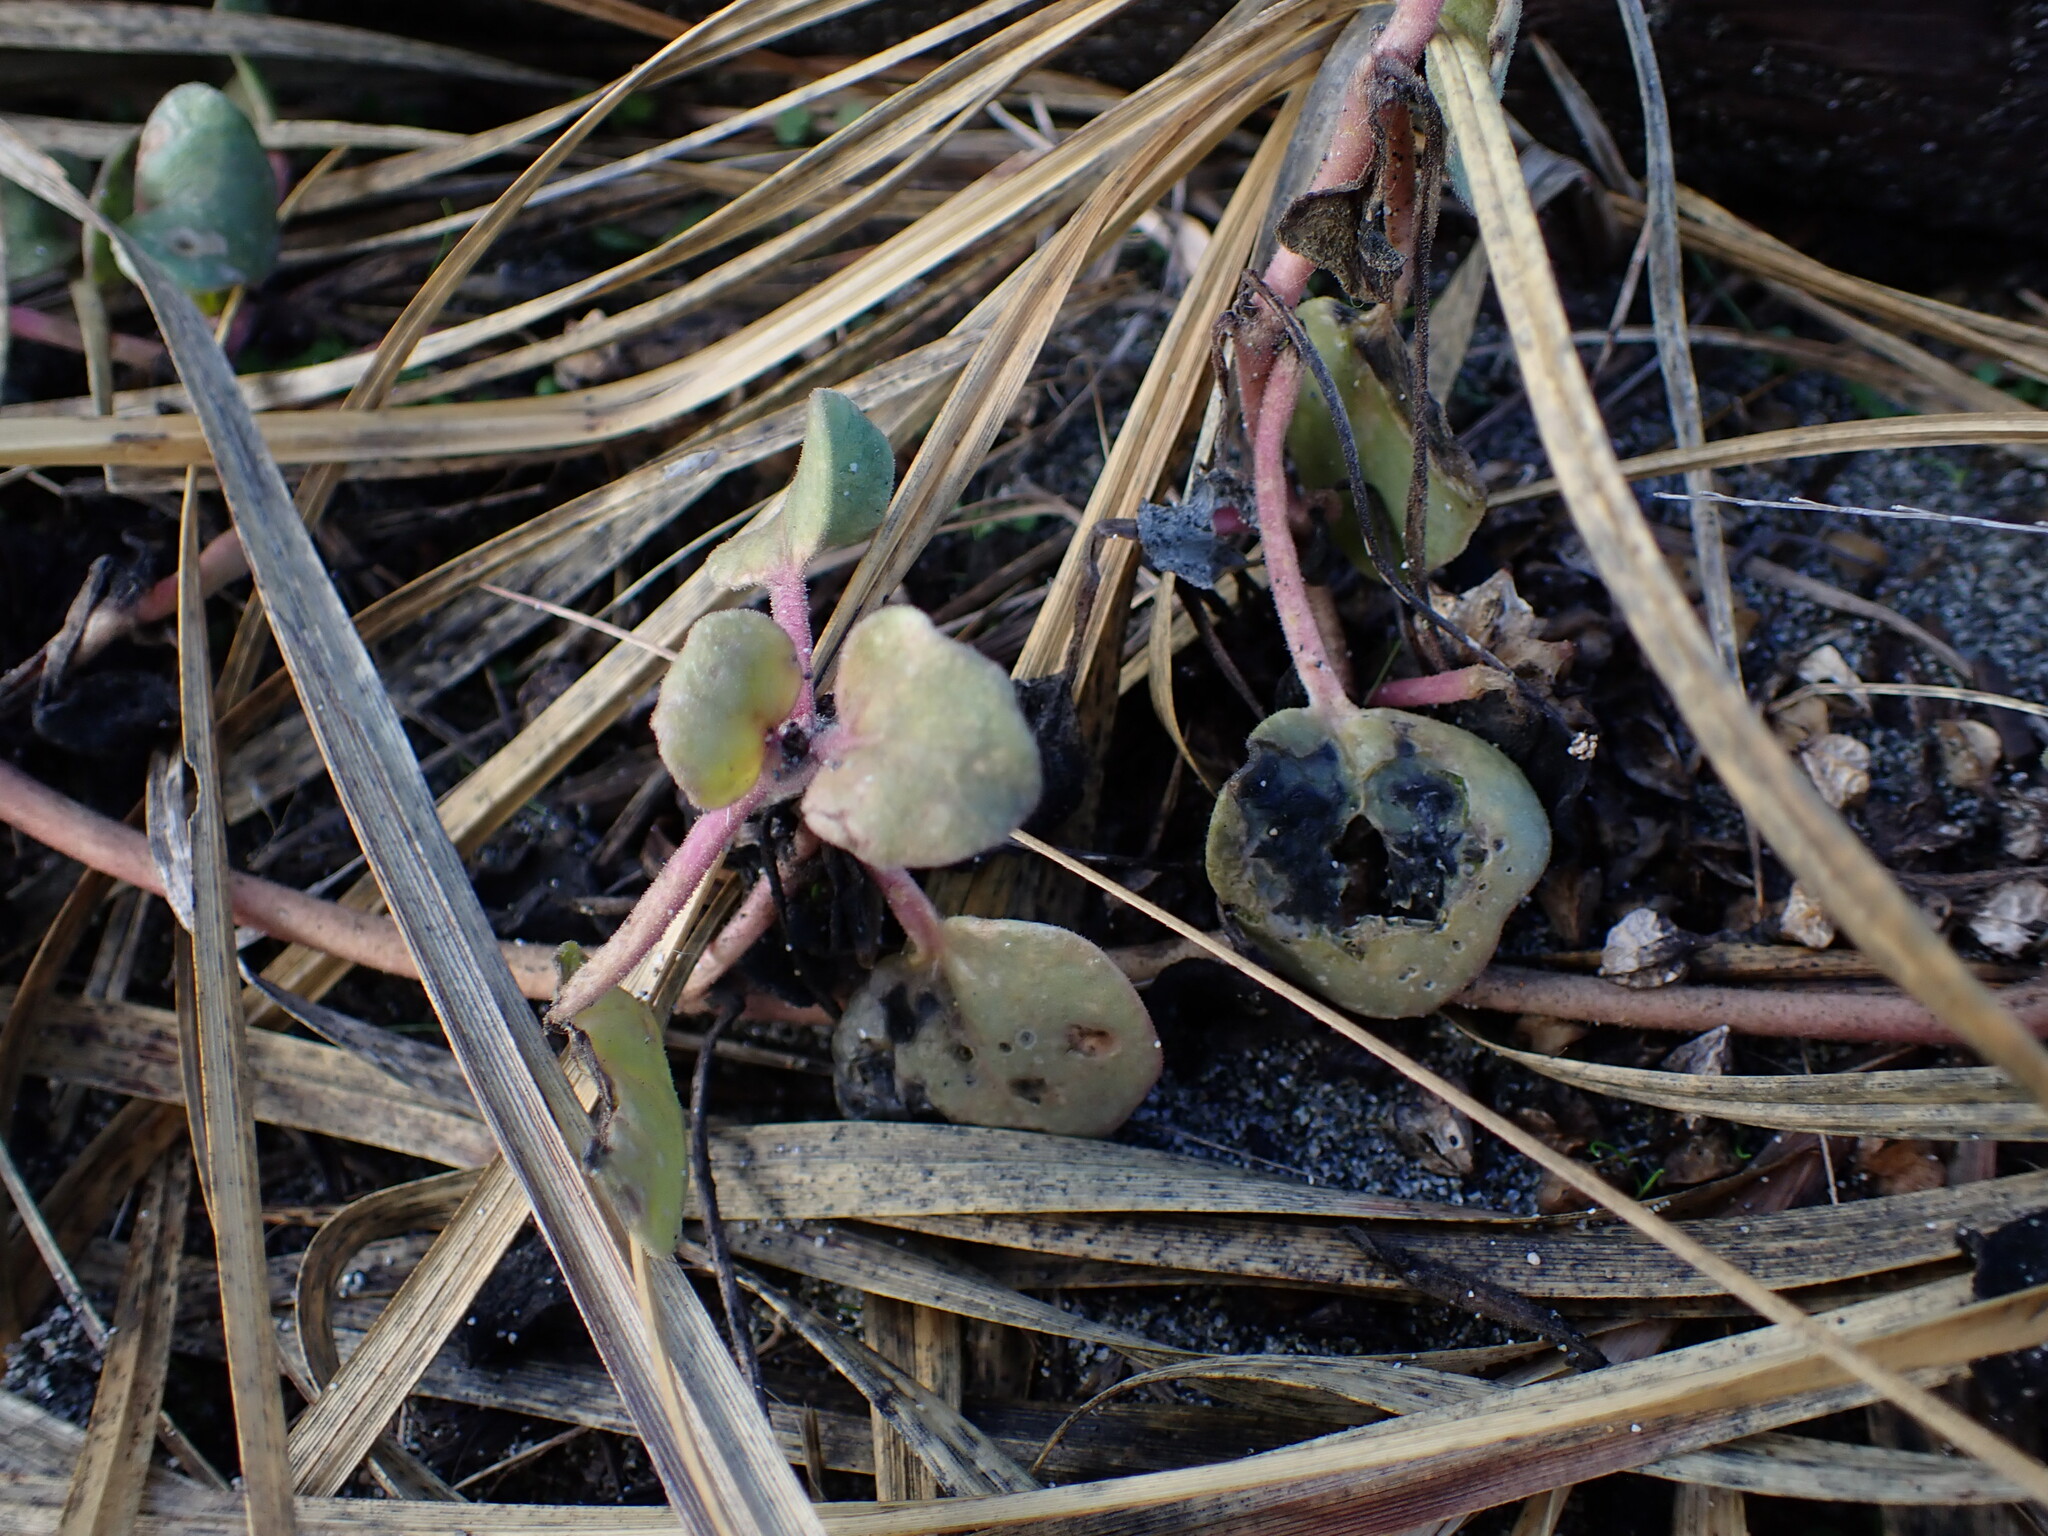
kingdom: Plantae
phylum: Tracheophyta
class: Magnoliopsida
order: Caryophyllales
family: Nyctaginaceae
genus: Abronia
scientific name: Abronia latifolia
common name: Yellow sand-verbena
